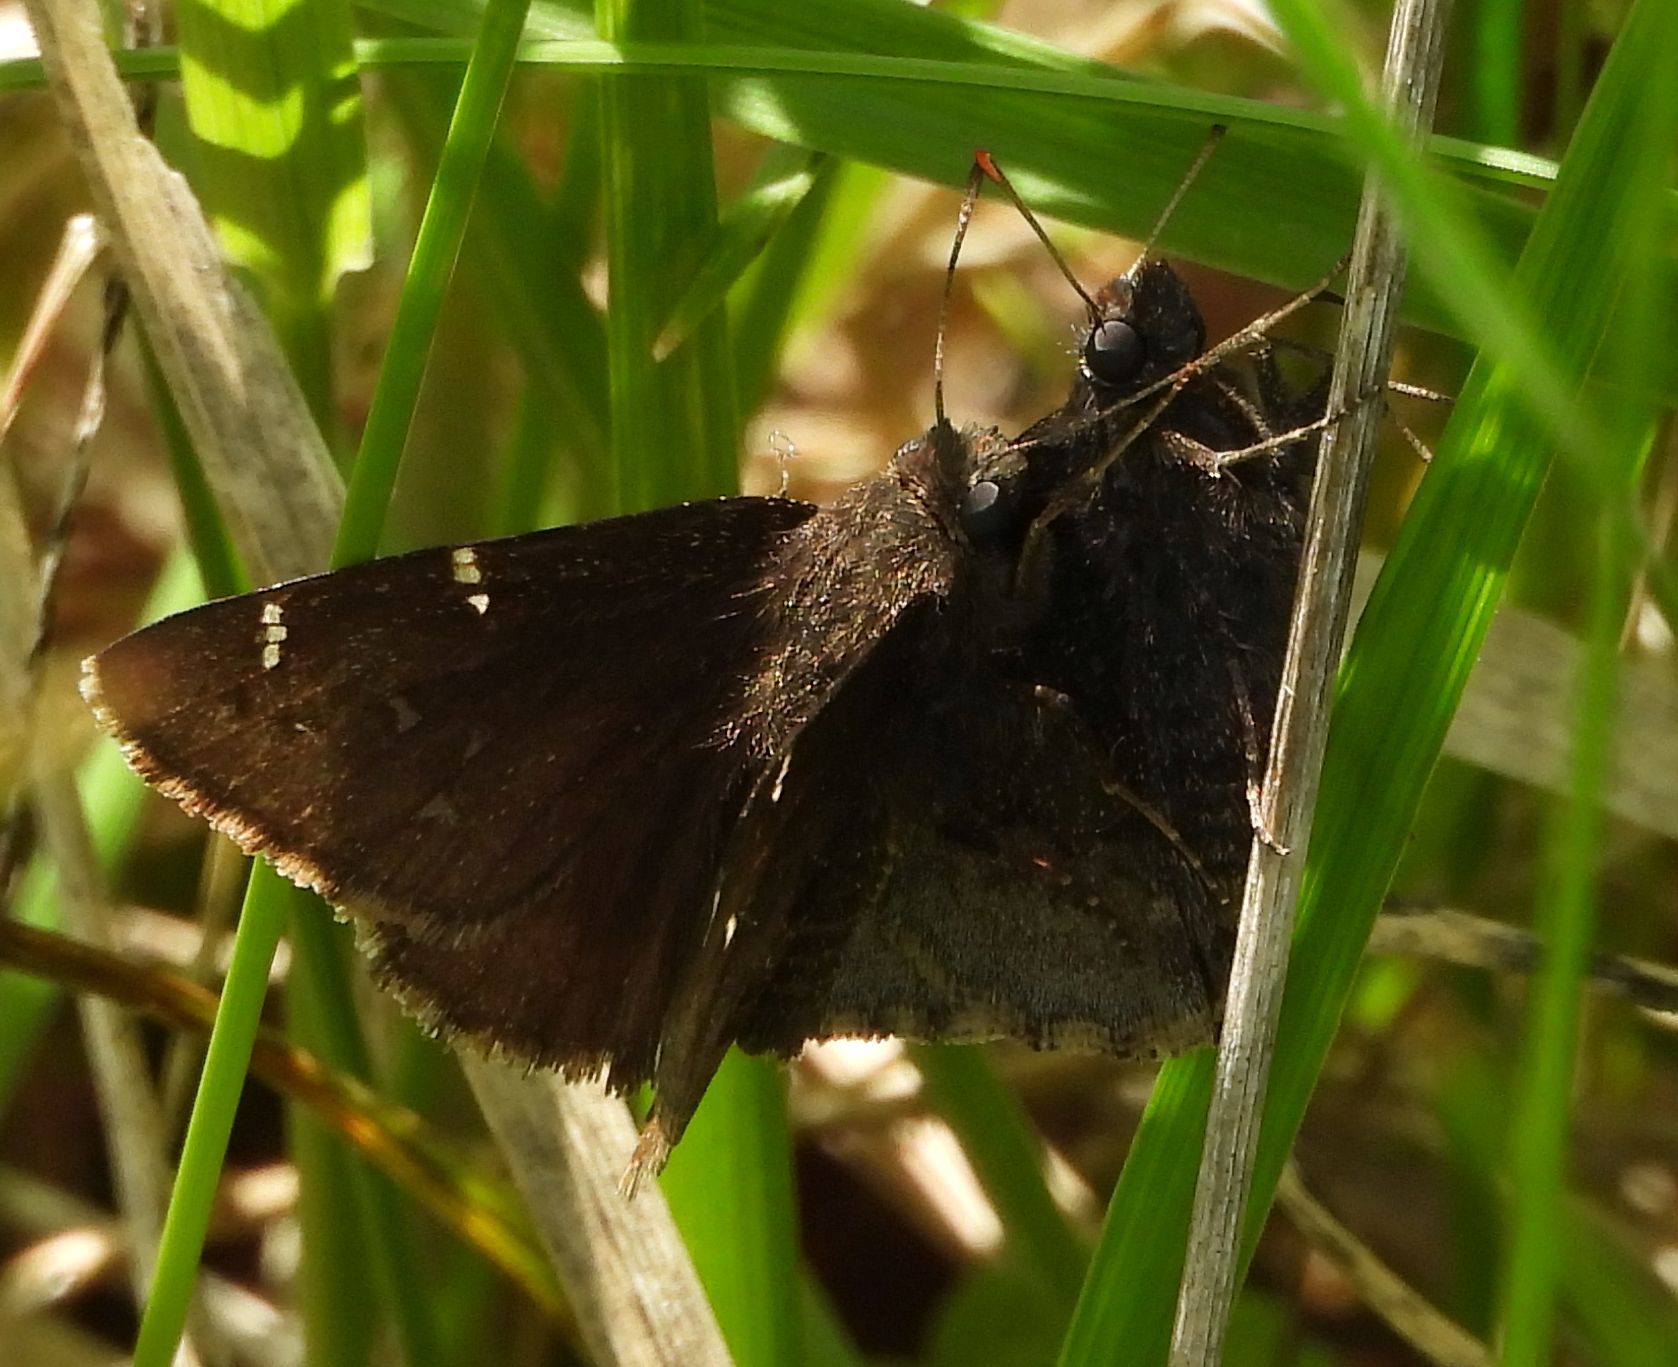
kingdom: Animalia
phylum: Arthropoda
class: Insecta
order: Lepidoptera
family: Hesperiidae
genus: Thorybes
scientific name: Thorybes pylades
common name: Northern cloudywing
